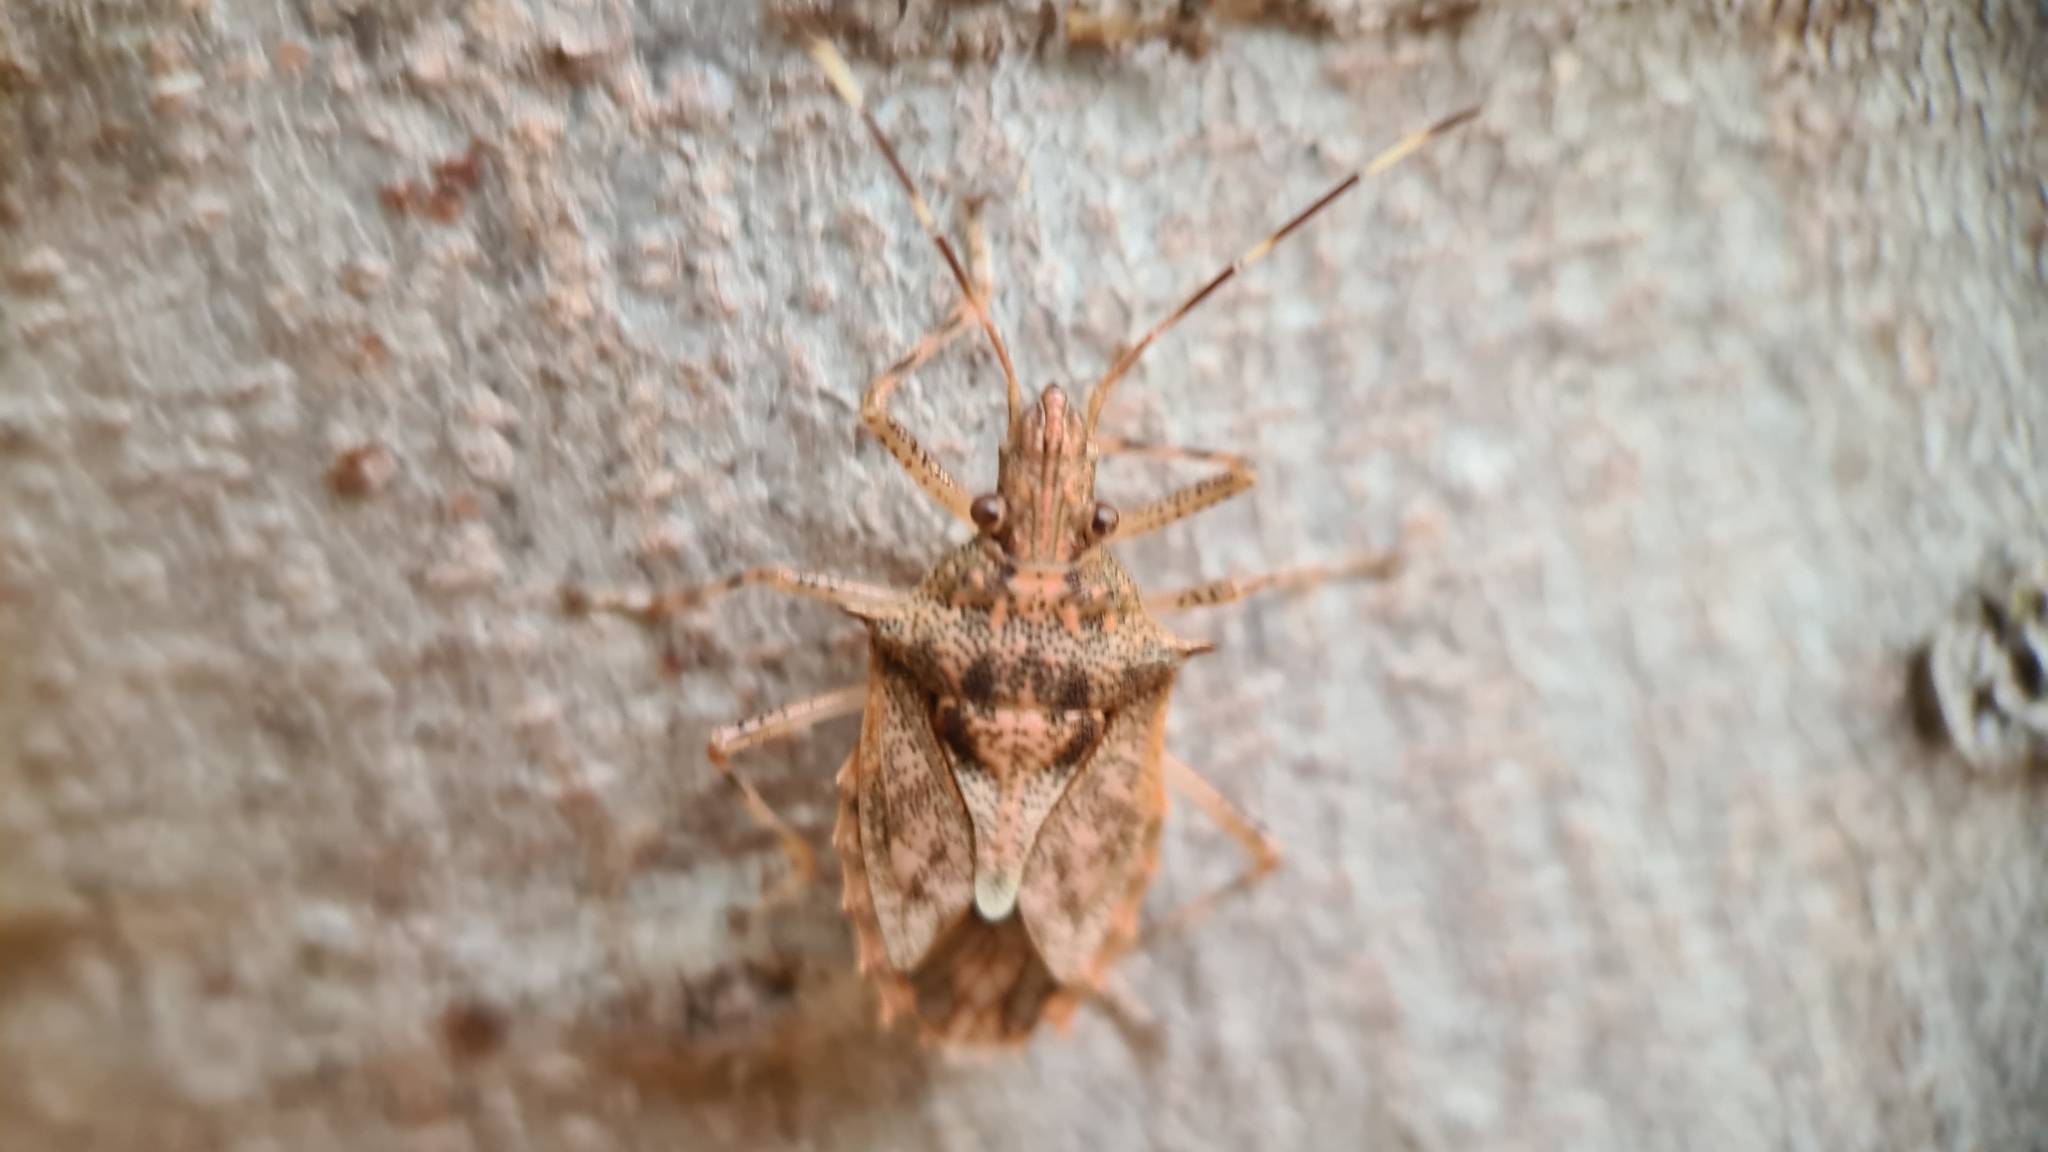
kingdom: Animalia
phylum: Arthropoda
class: Insecta
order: Hemiptera
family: Pentatomidae
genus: Bromocoris
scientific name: Bromocoris
